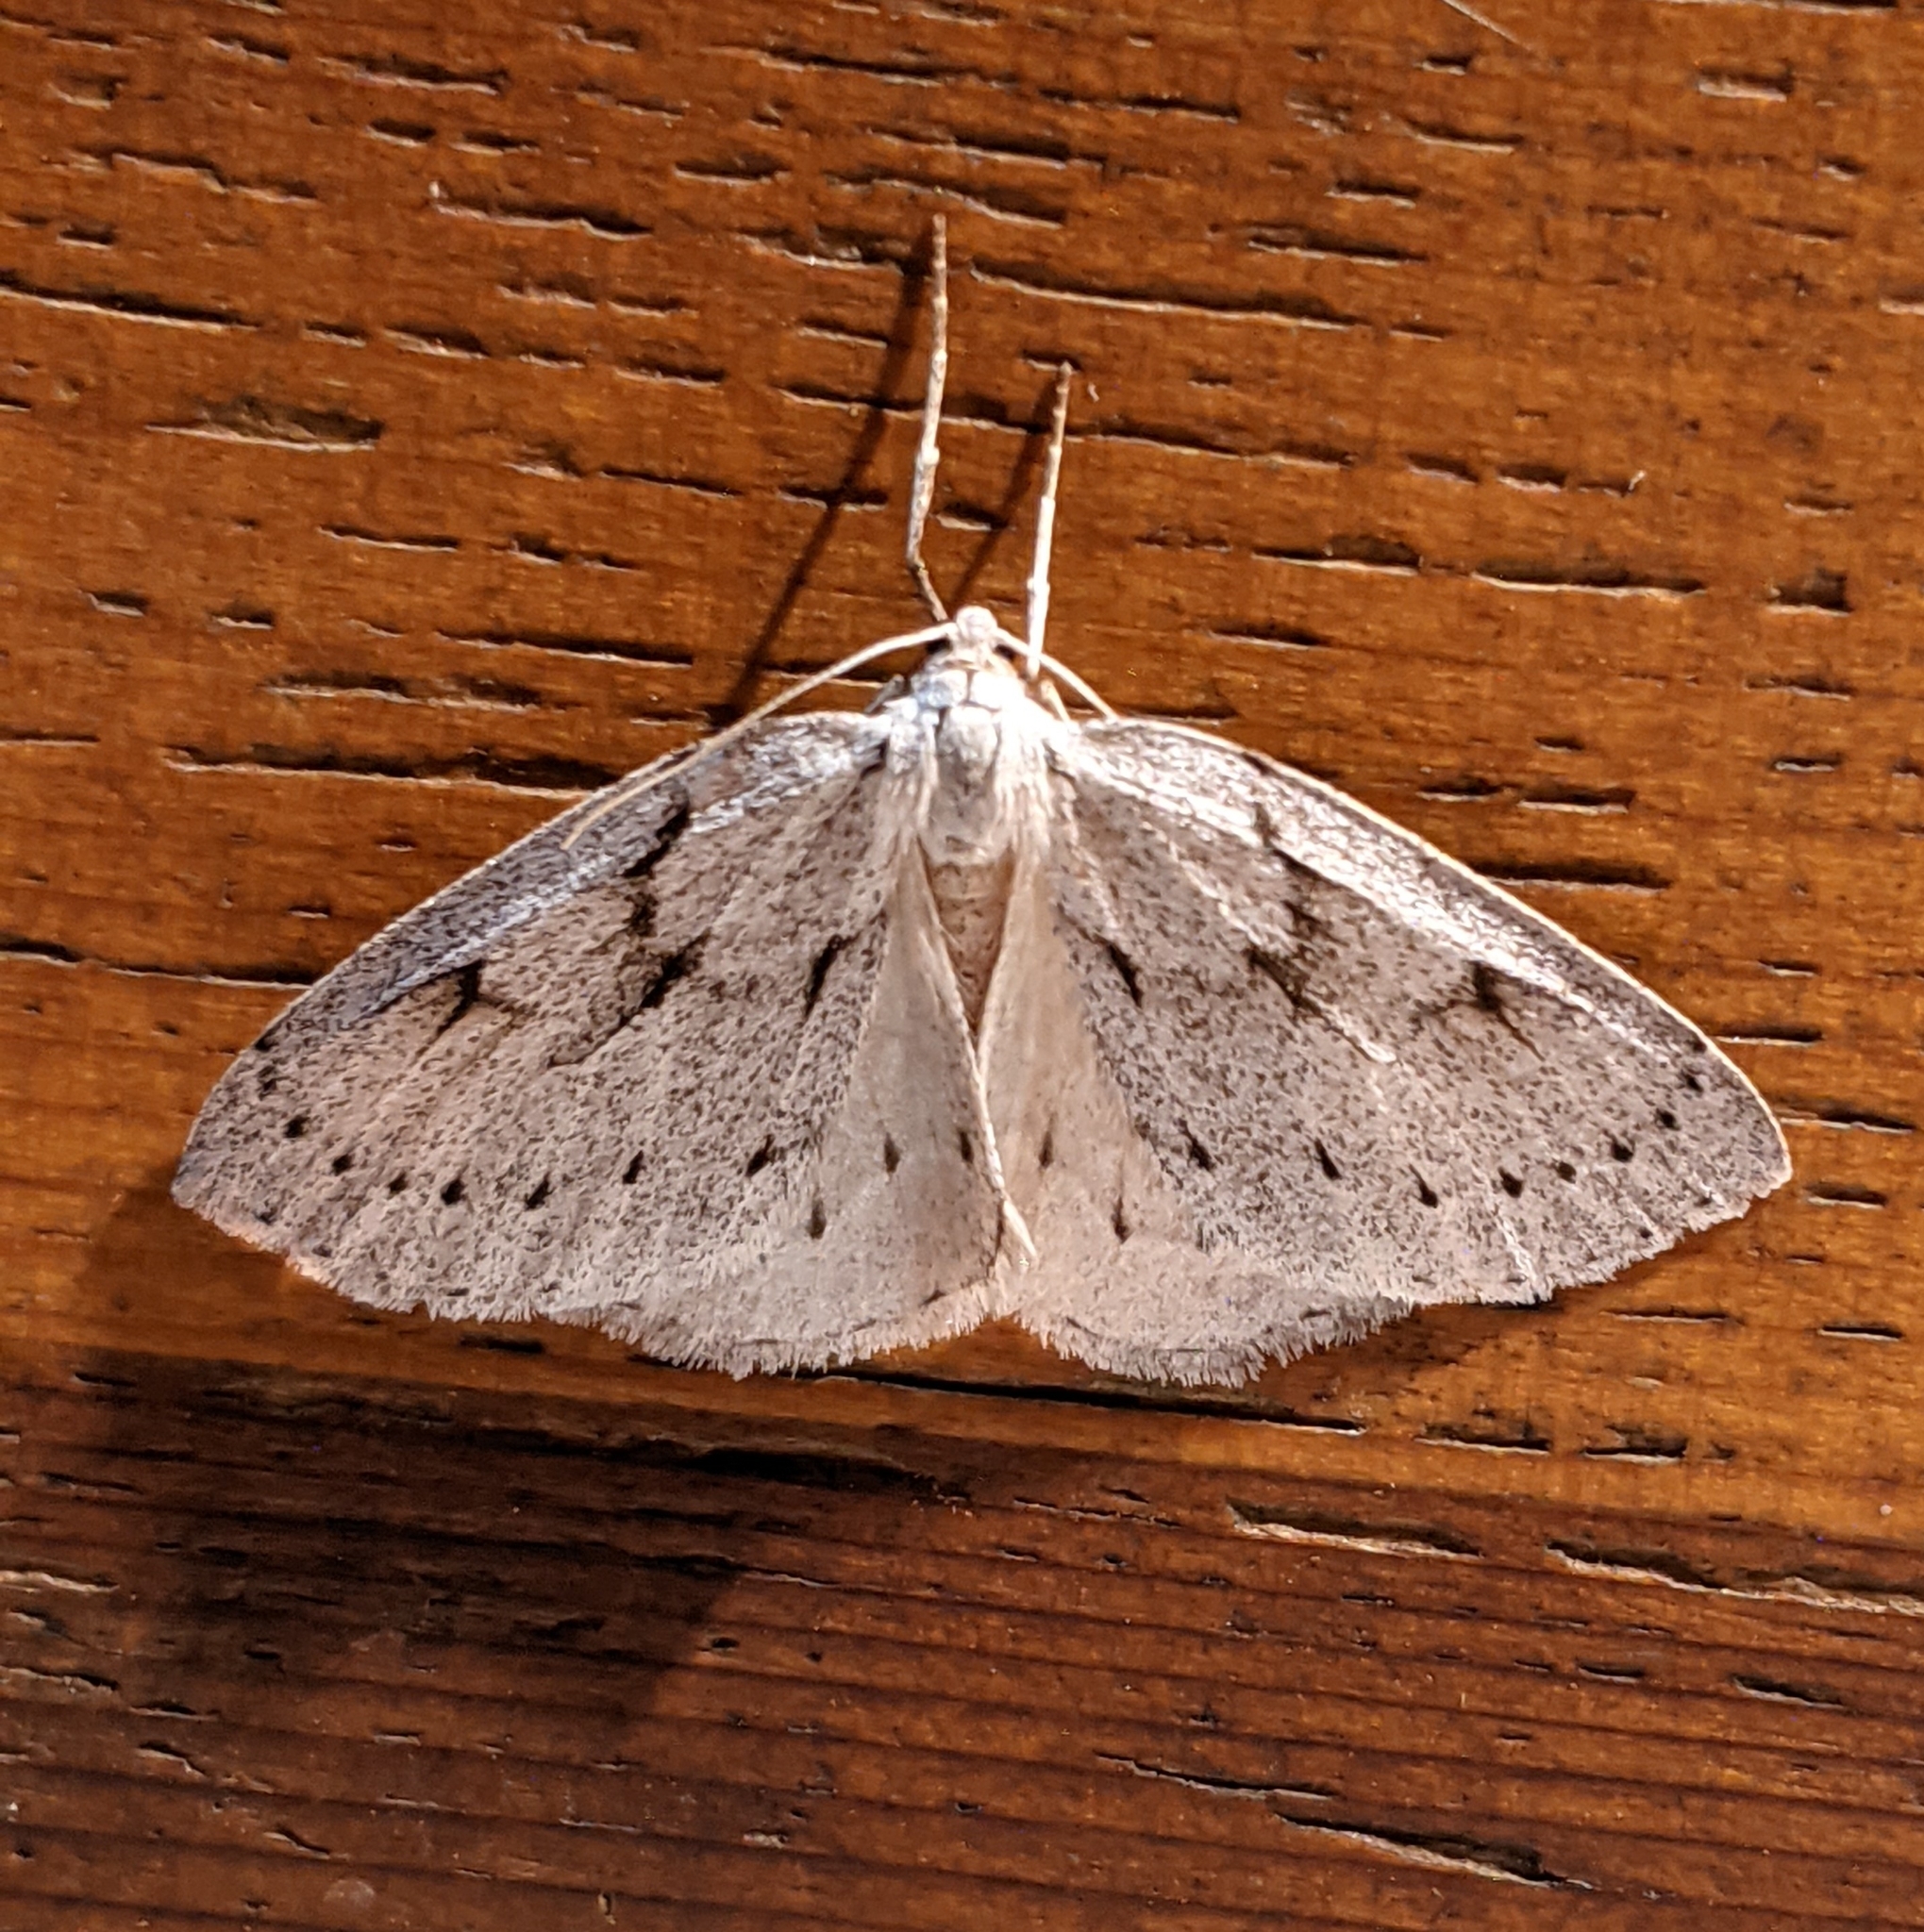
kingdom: Animalia
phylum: Arthropoda
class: Insecta
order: Lepidoptera
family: Geometridae
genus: Philedia
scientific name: Philedia punctomacularia
